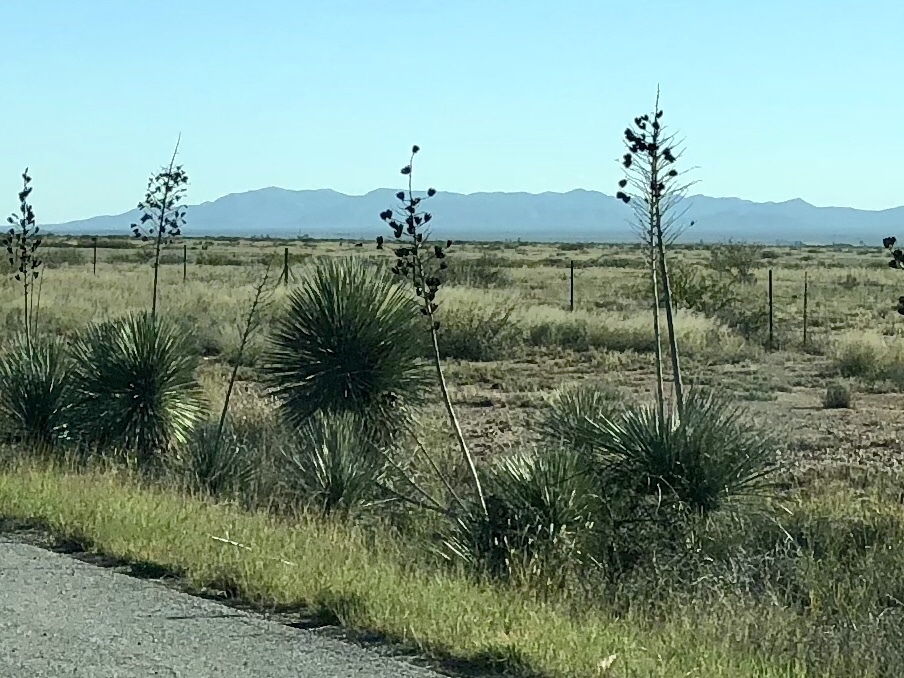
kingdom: Plantae
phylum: Tracheophyta
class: Liliopsida
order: Asparagales
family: Asparagaceae
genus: Yucca
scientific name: Yucca elata
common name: Palmella
